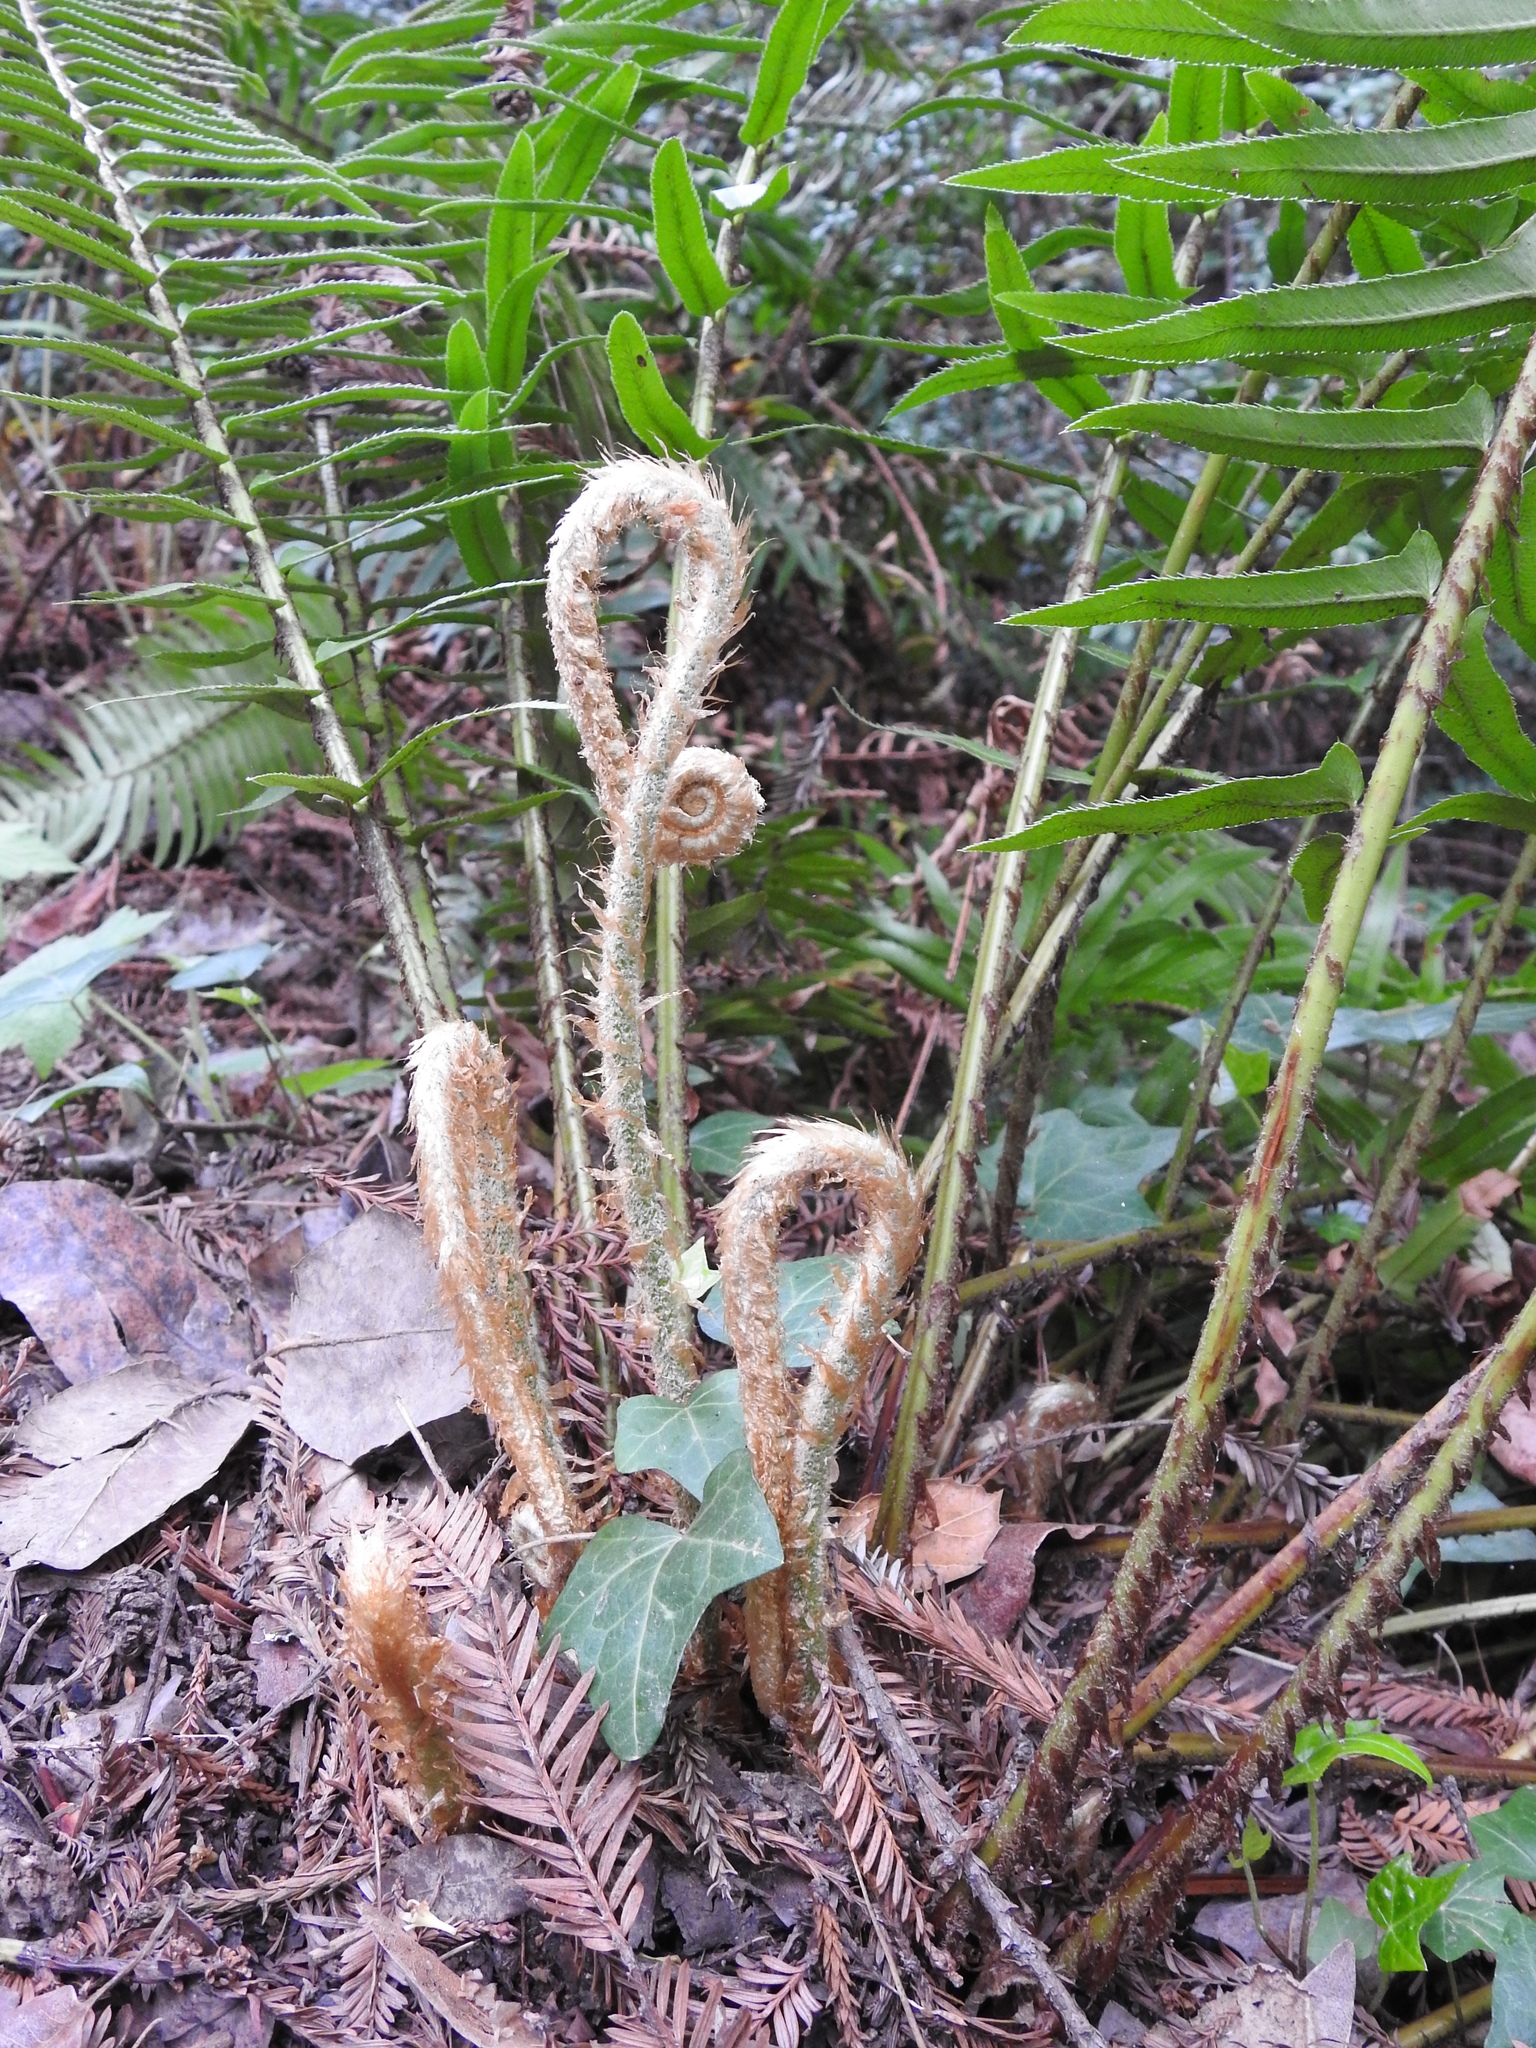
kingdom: Plantae
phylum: Tracheophyta
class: Polypodiopsida
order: Polypodiales
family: Dryopteridaceae
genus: Polystichum
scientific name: Polystichum munitum
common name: Western sword-fern
